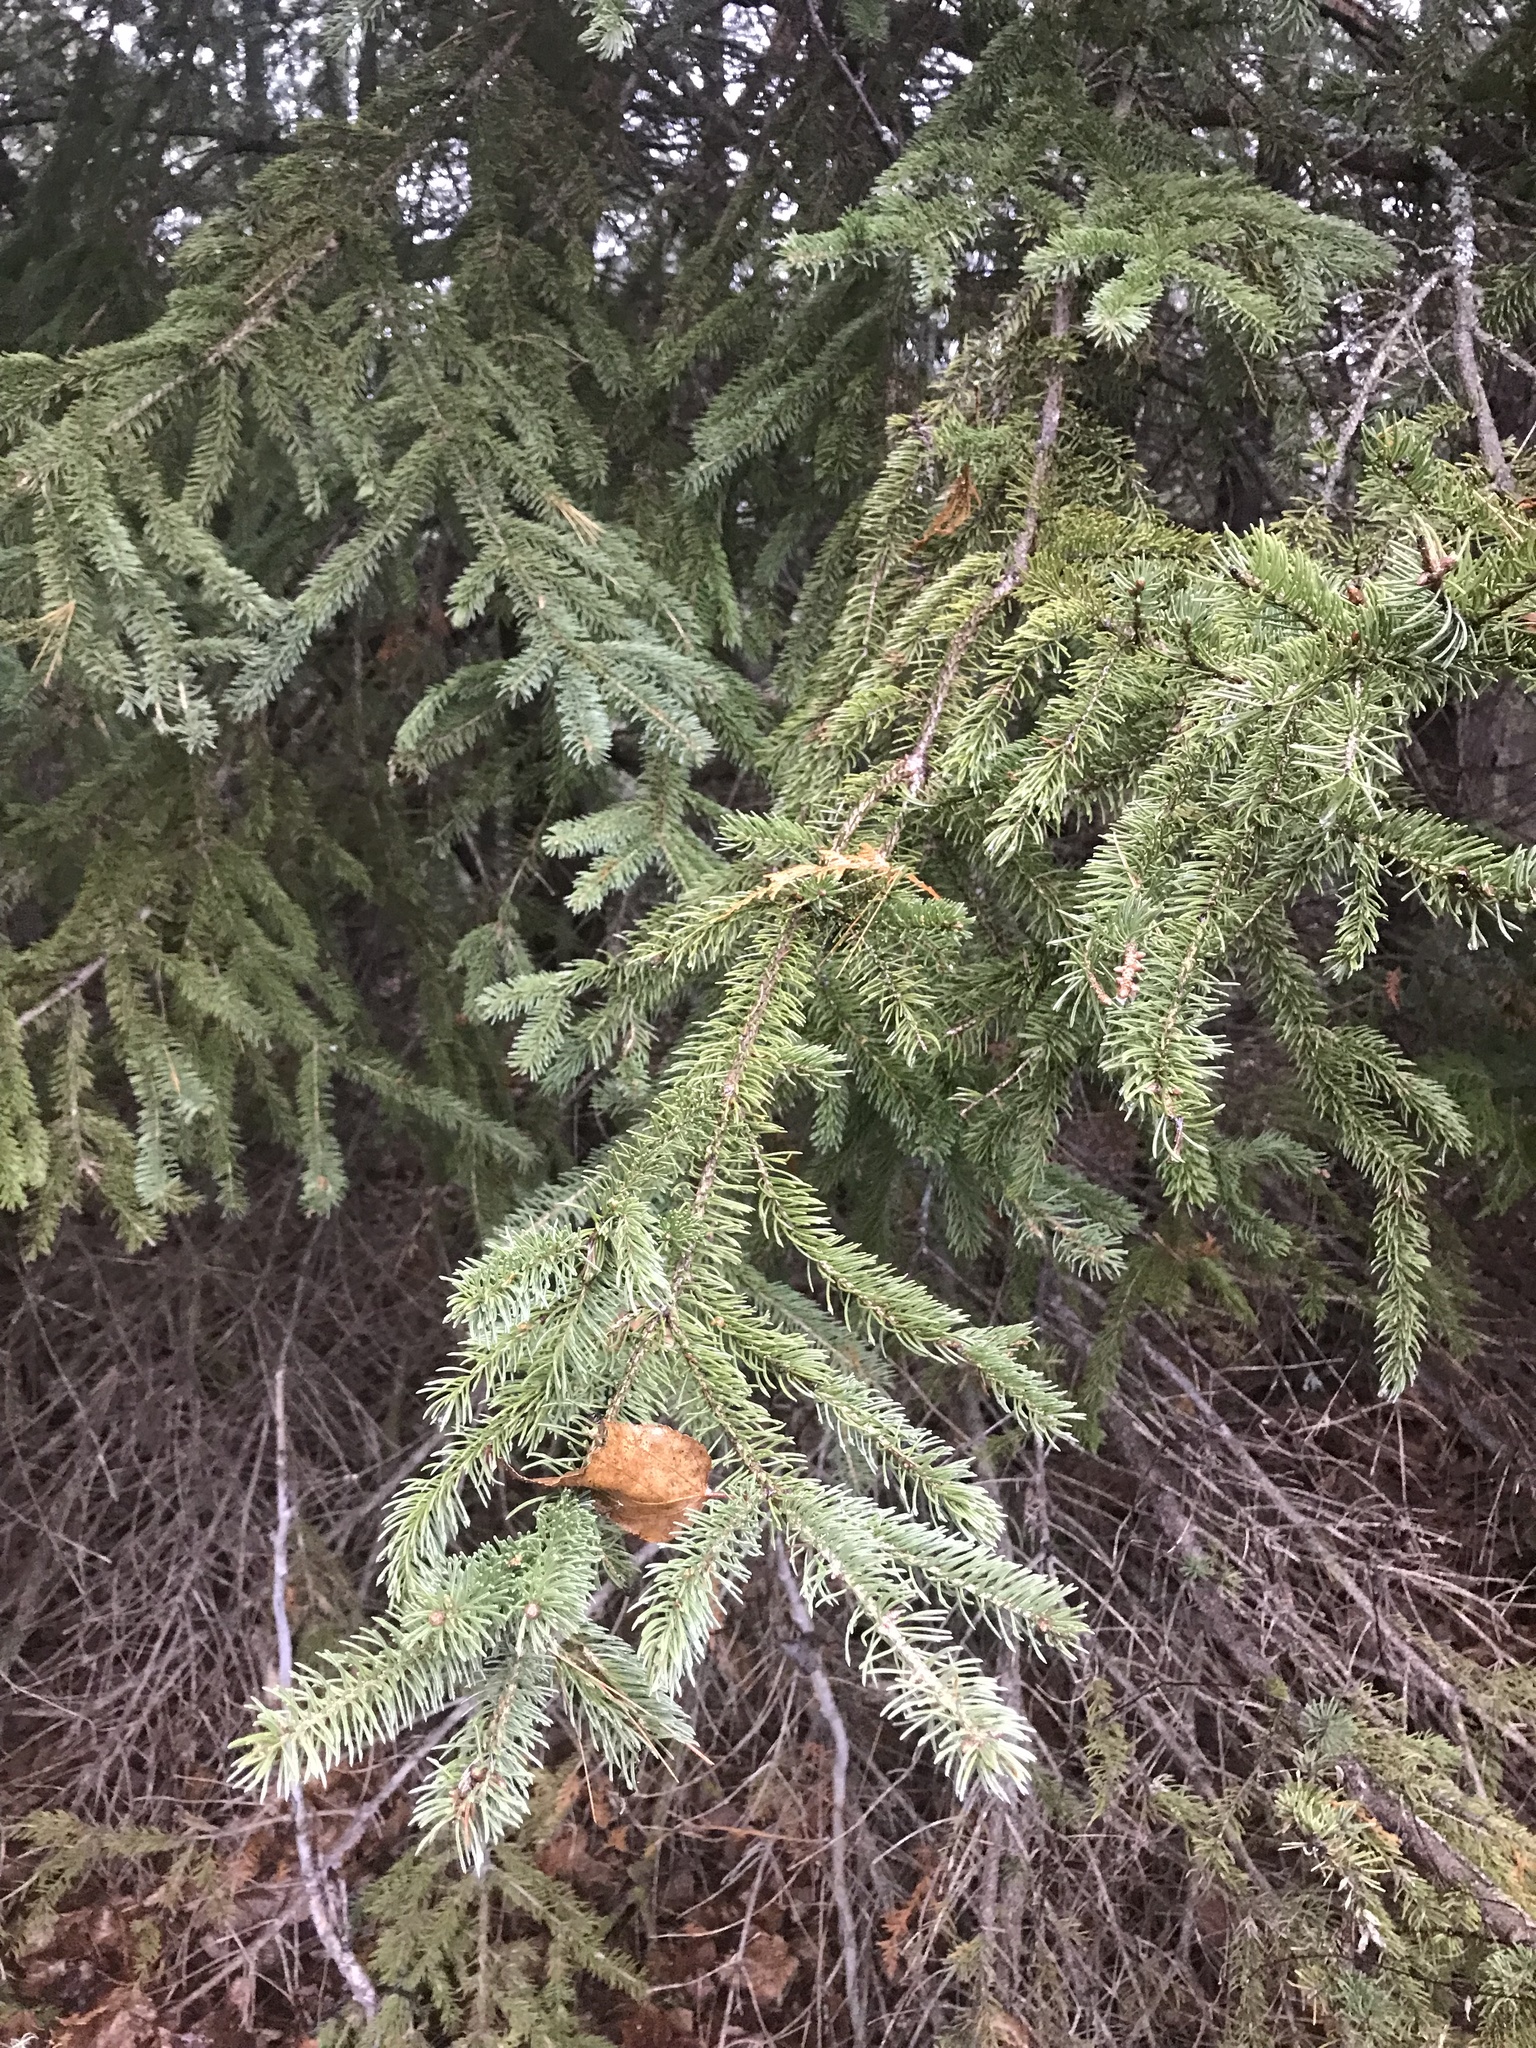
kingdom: Plantae
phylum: Tracheophyta
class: Pinopsida
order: Pinales
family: Pinaceae
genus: Picea
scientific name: Picea glauca
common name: White spruce
